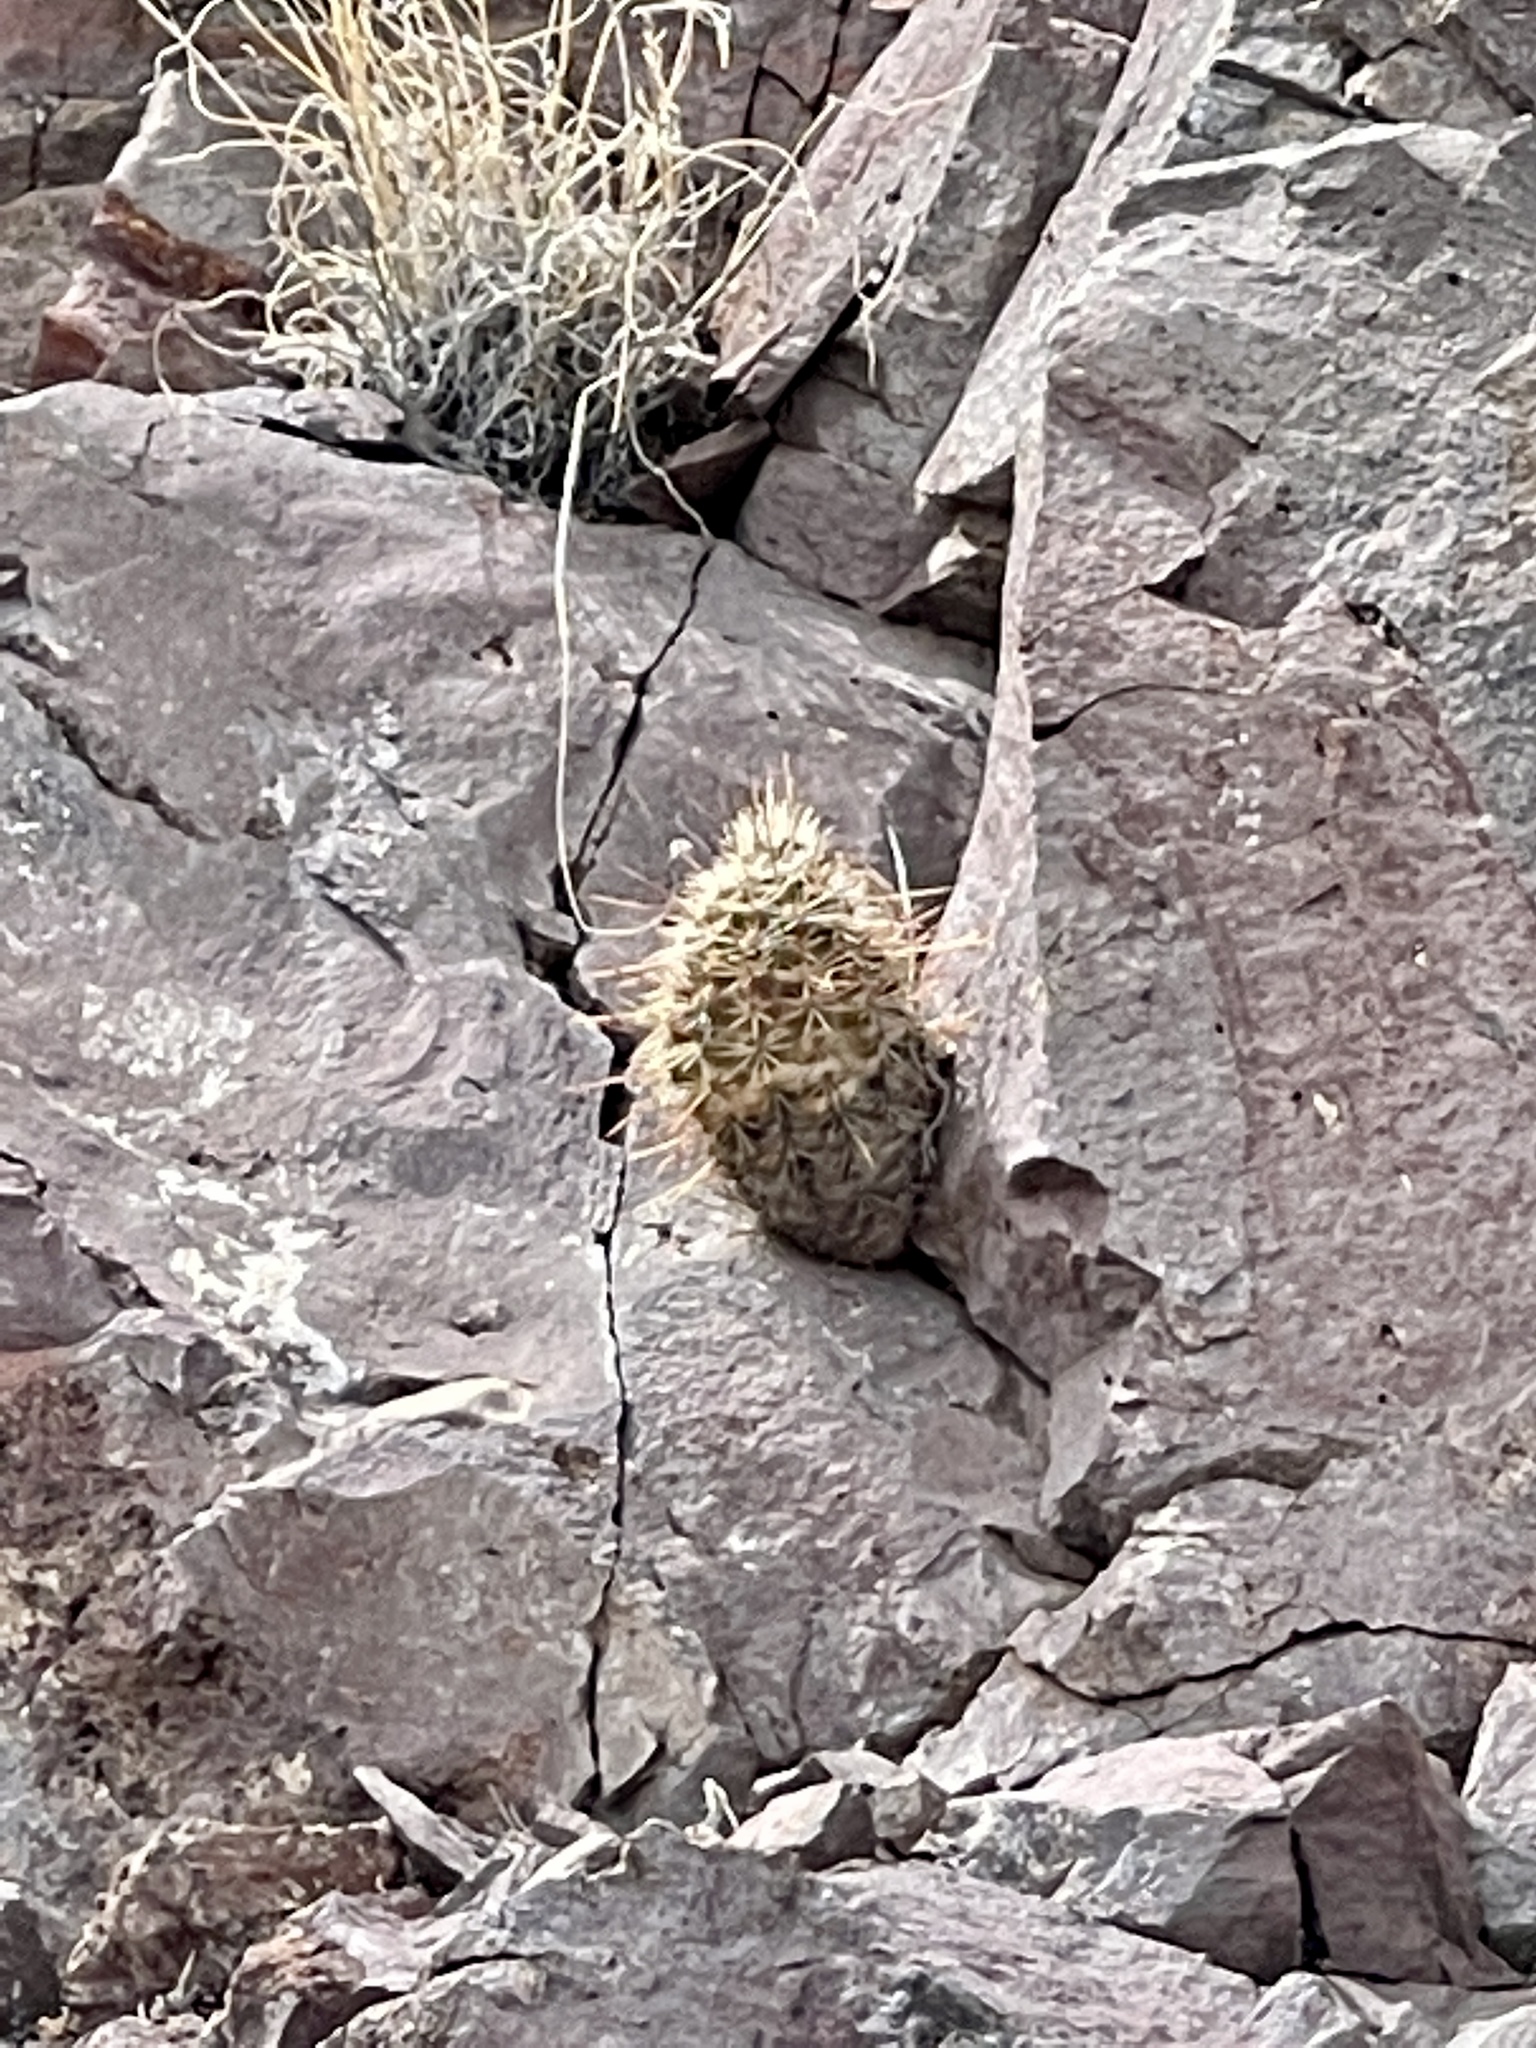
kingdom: Plantae
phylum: Tracheophyta
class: Magnoliopsida
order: Caryophyllales
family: Cactaceae
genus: Echinocereus
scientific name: Echinocereus fasciculatus
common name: Bundle hedgehog
